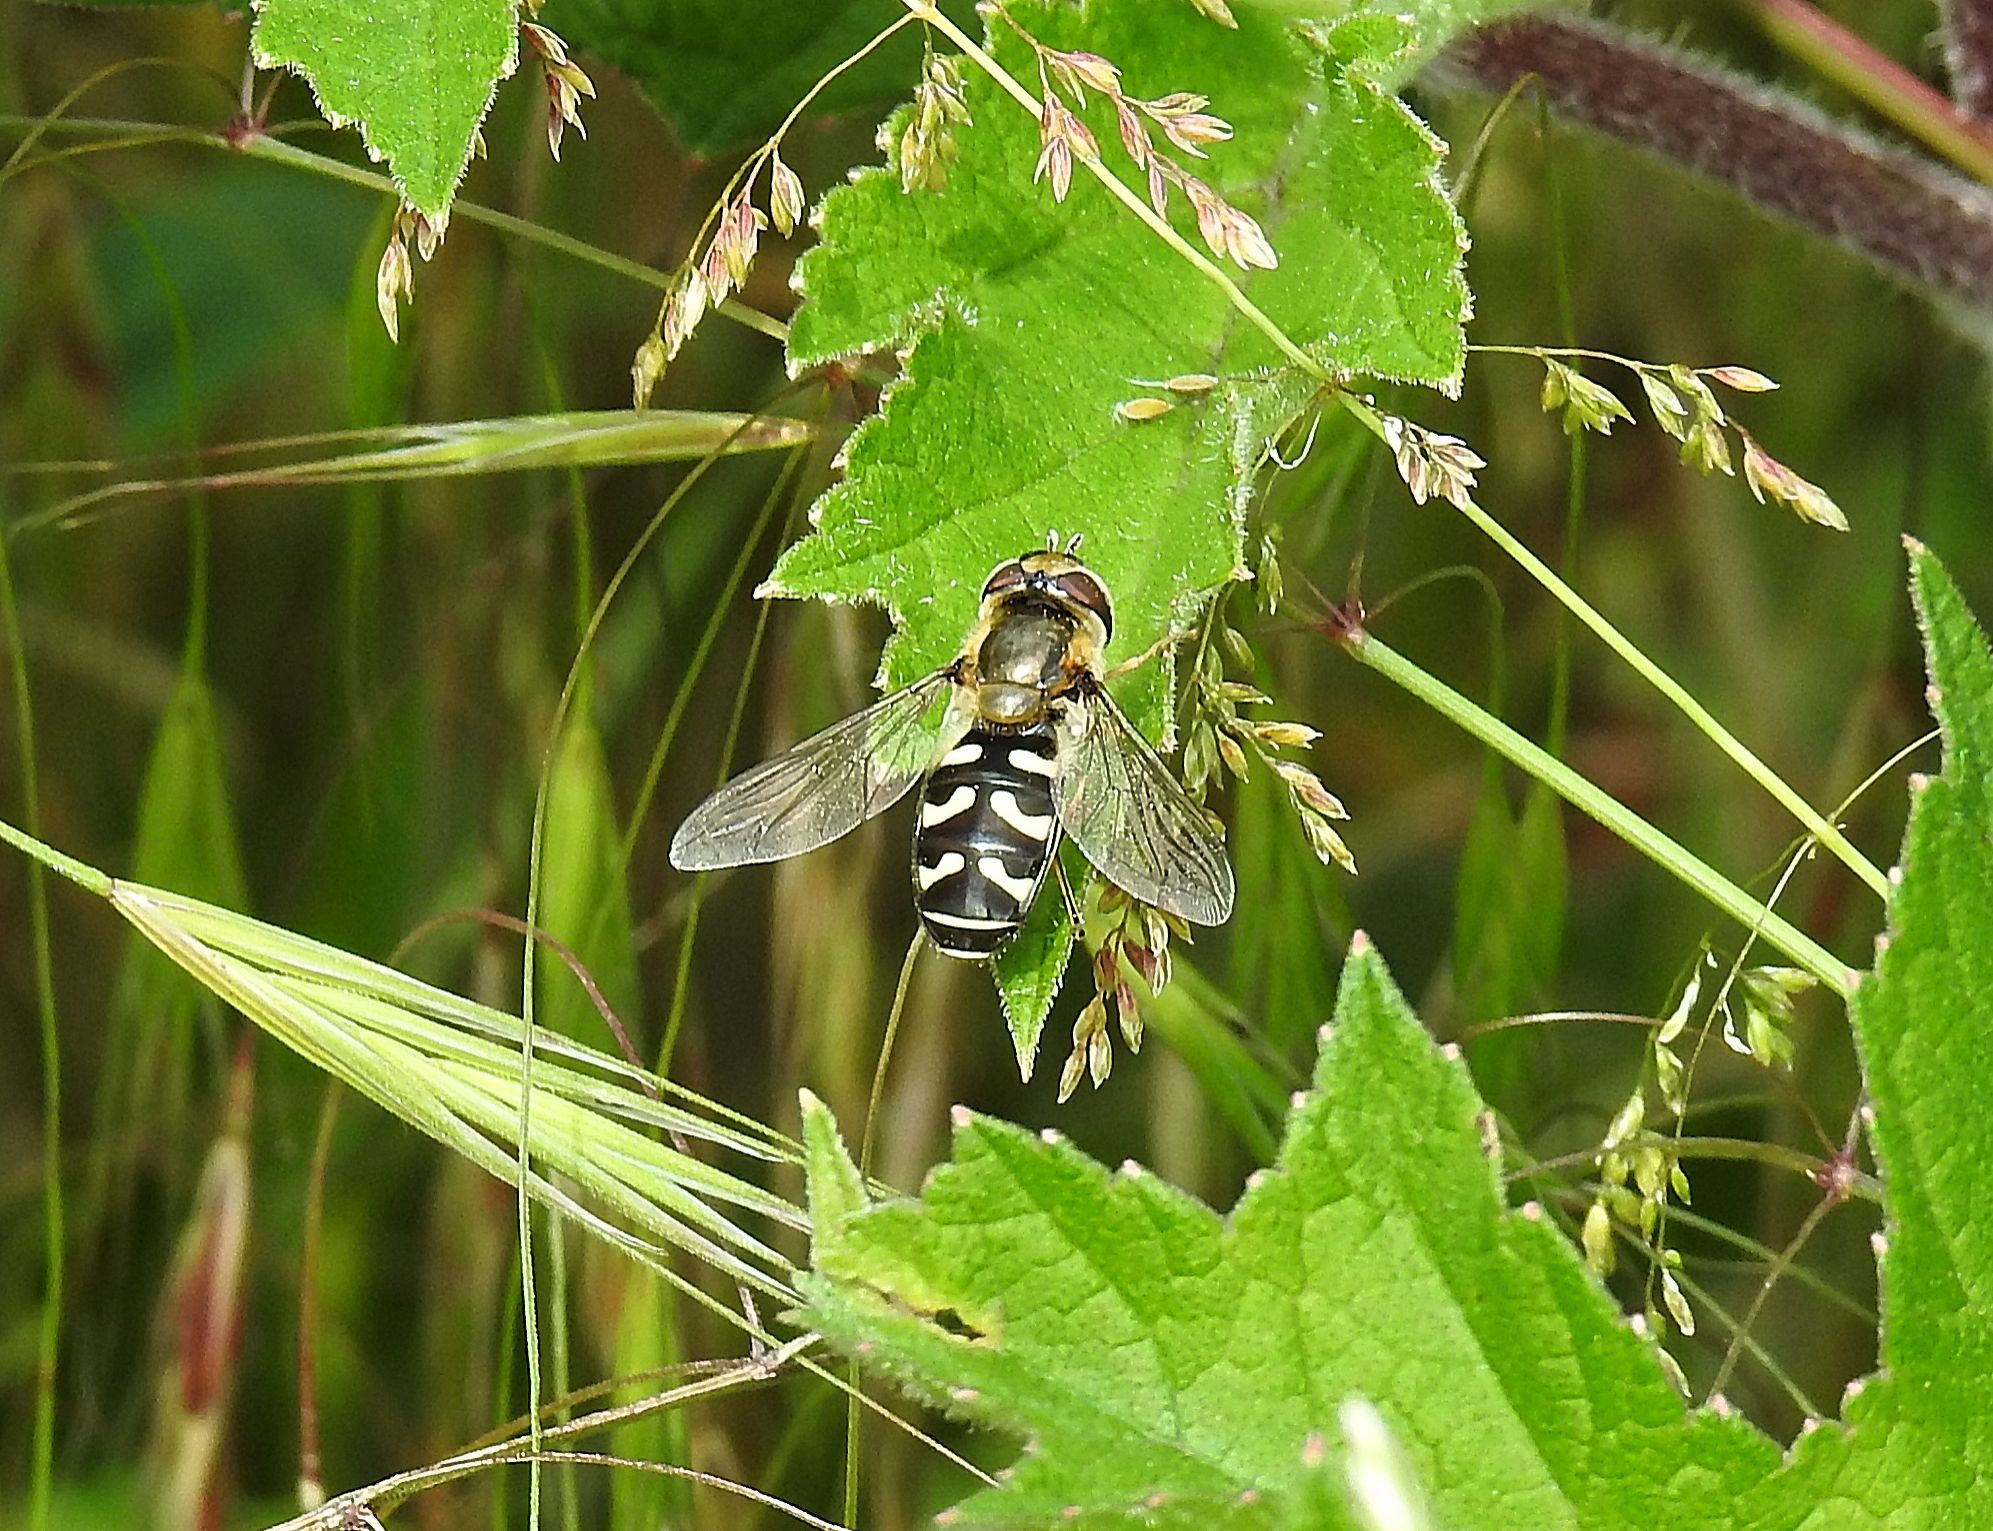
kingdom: Animalia
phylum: Arthropoda
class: Insecta
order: Diptera
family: Syrphidae
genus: Scaeva
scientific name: Scaeva pyrastri
